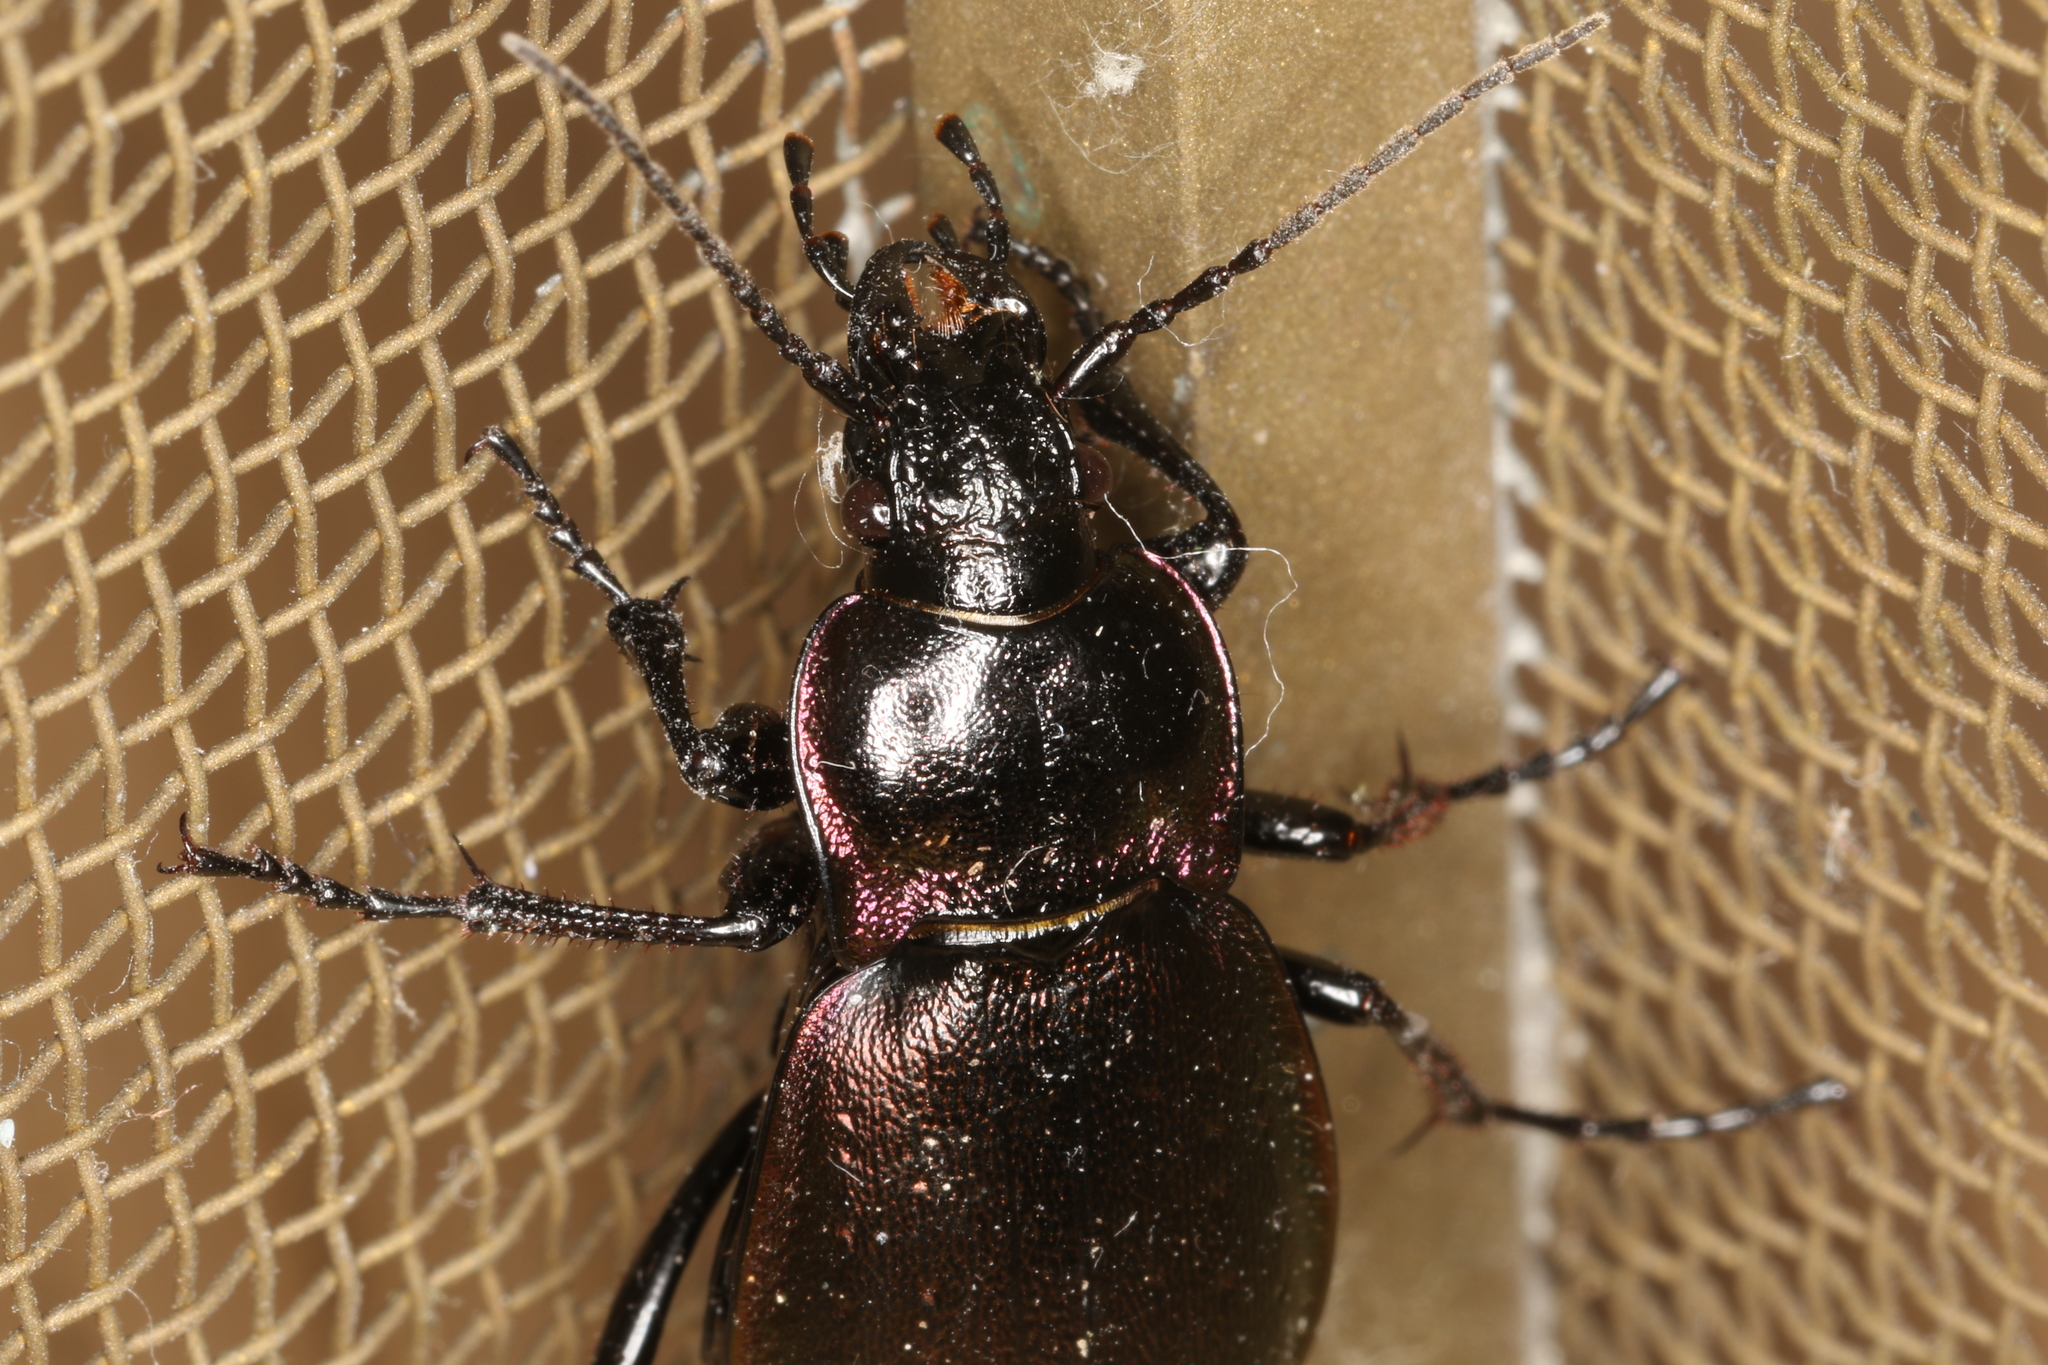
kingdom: Animalia
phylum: Arthropoda
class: Insecta
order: Coleoptera
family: Carabidae
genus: Carabus
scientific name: Carabus nemoralis
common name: European ground beetle
